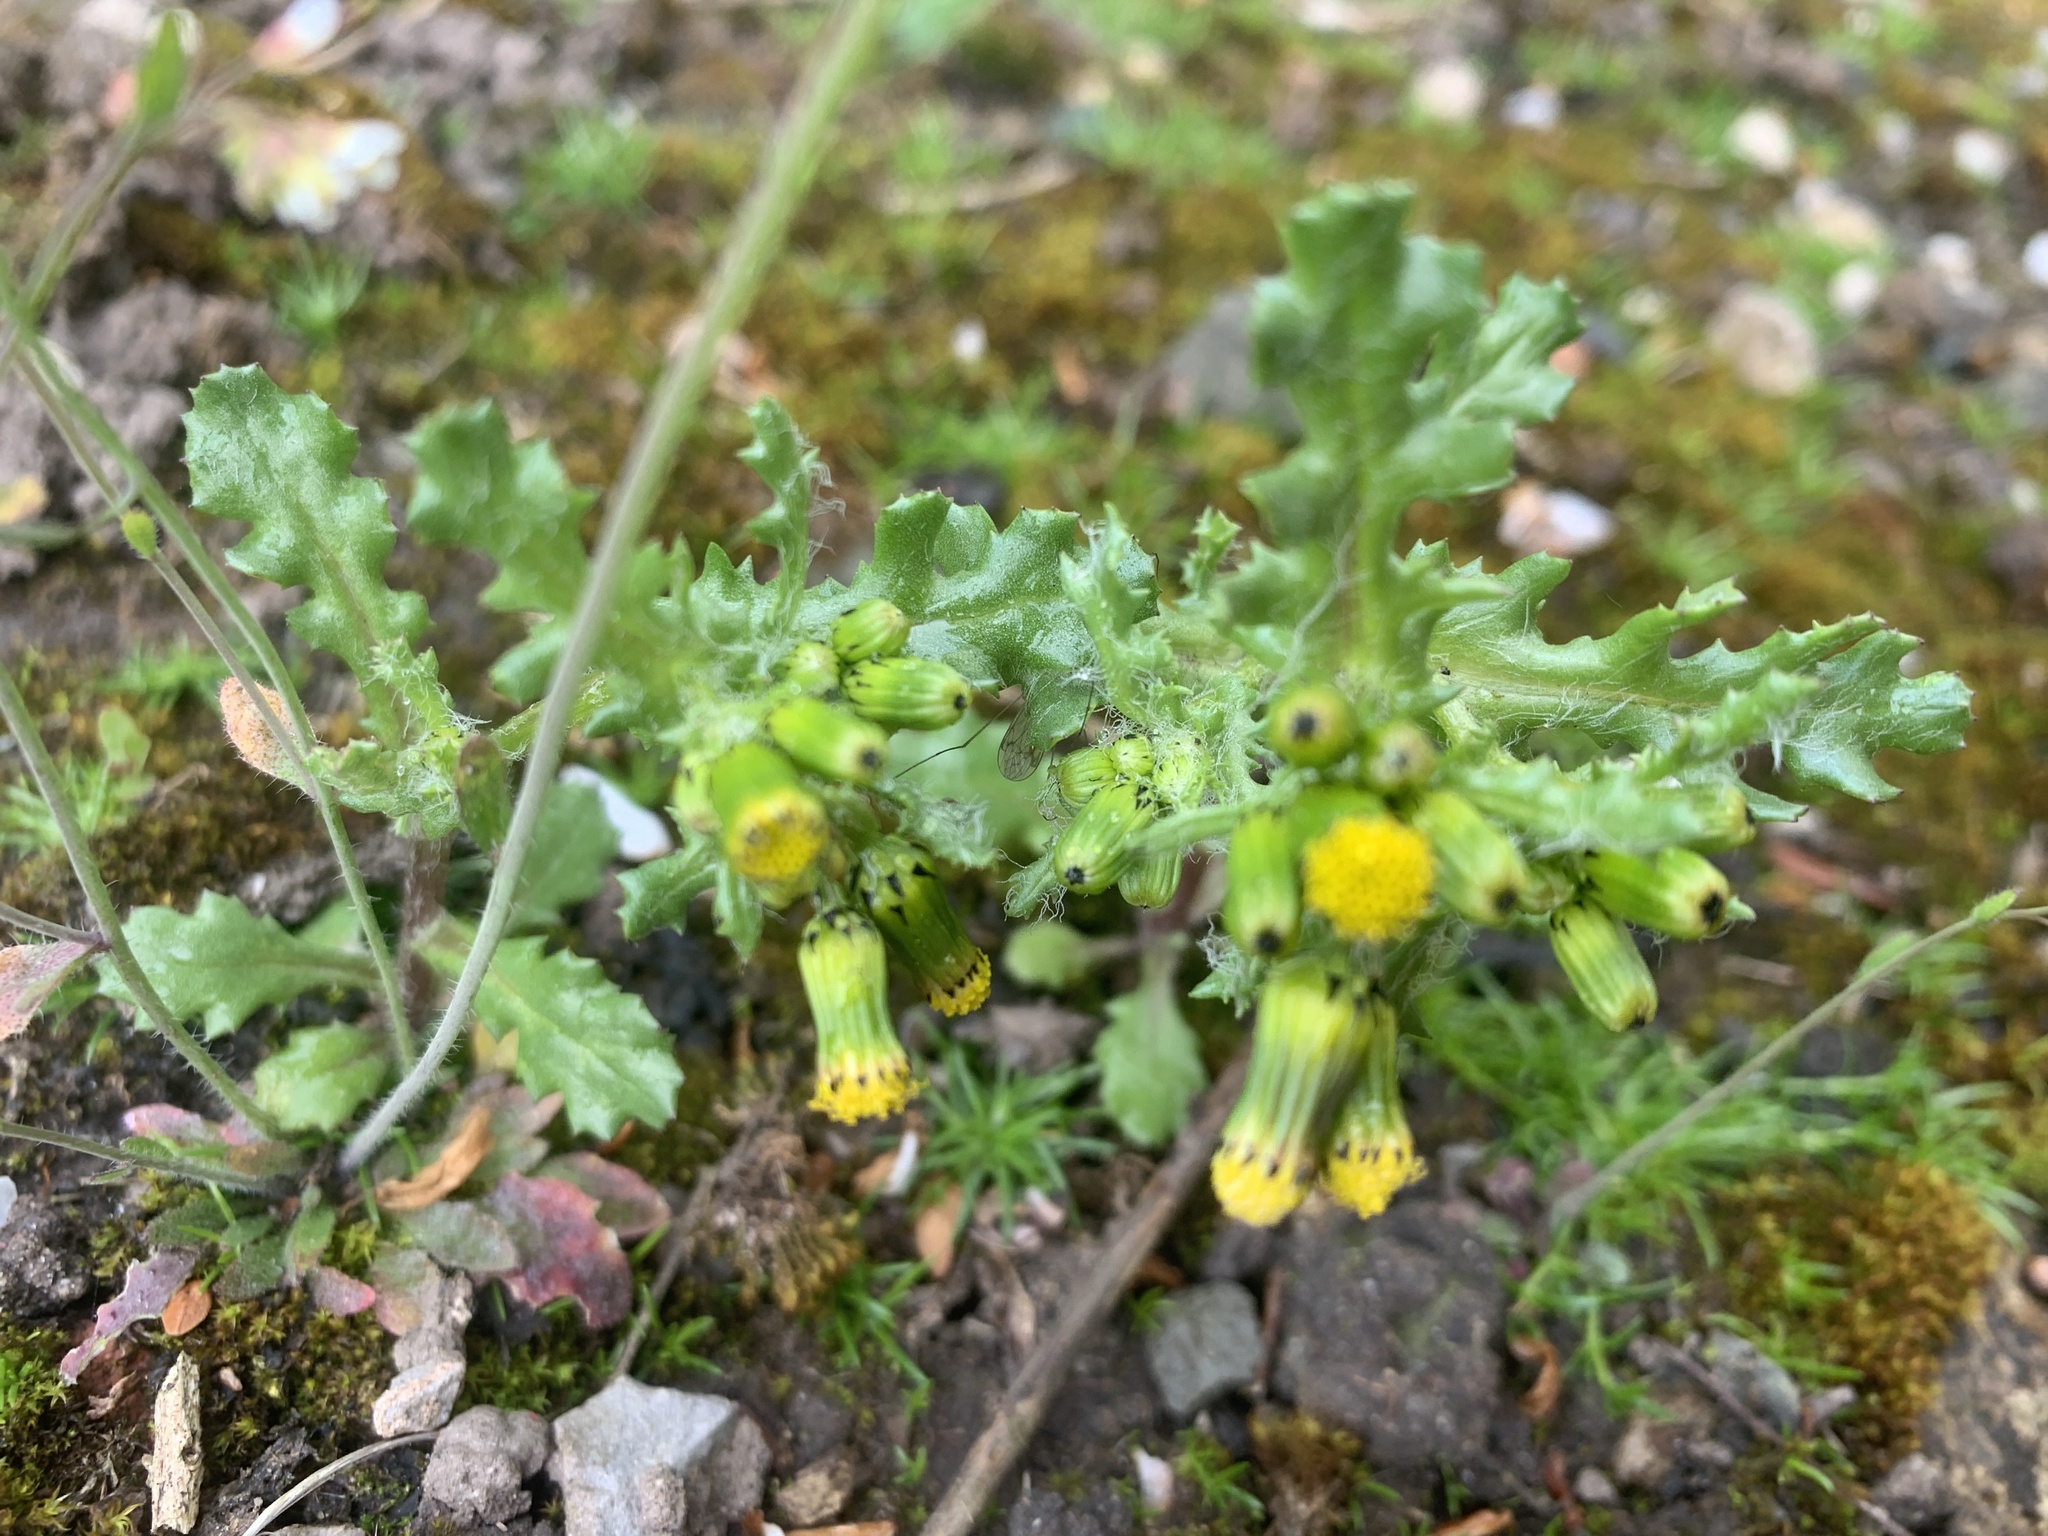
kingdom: Plantae
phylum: Tracheophyta
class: Magnoliopsida
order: Asterales
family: Asteraceae
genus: Senecio
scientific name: Senecio vulgaris
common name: Old-man-in-the-spring
